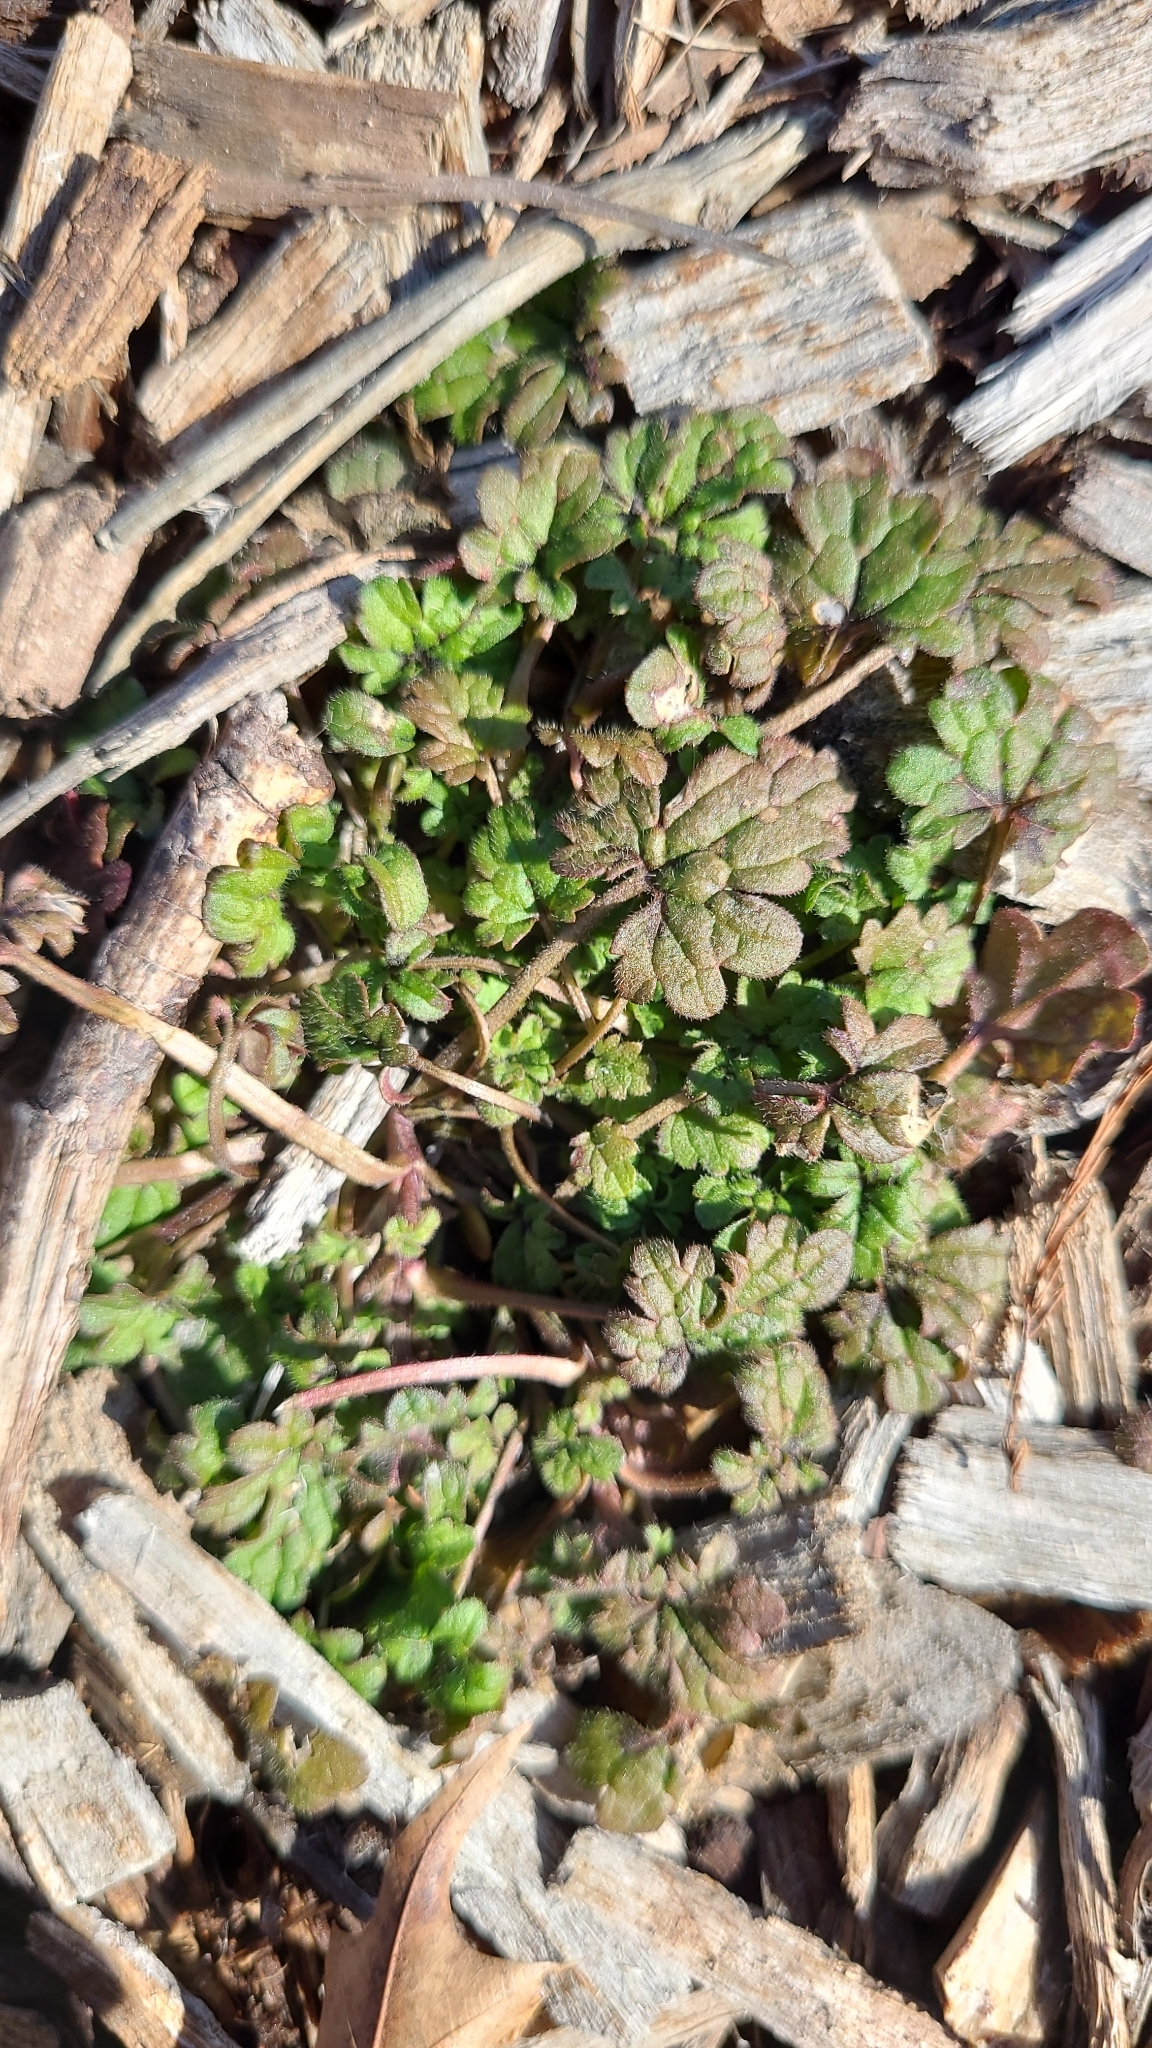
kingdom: Plantae
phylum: Tracheophyta
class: Magnoliopsida
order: Lamiales
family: Lamiaceae
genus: Lamium
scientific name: Lamium amplexicaule
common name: Henbit dead-nettle
